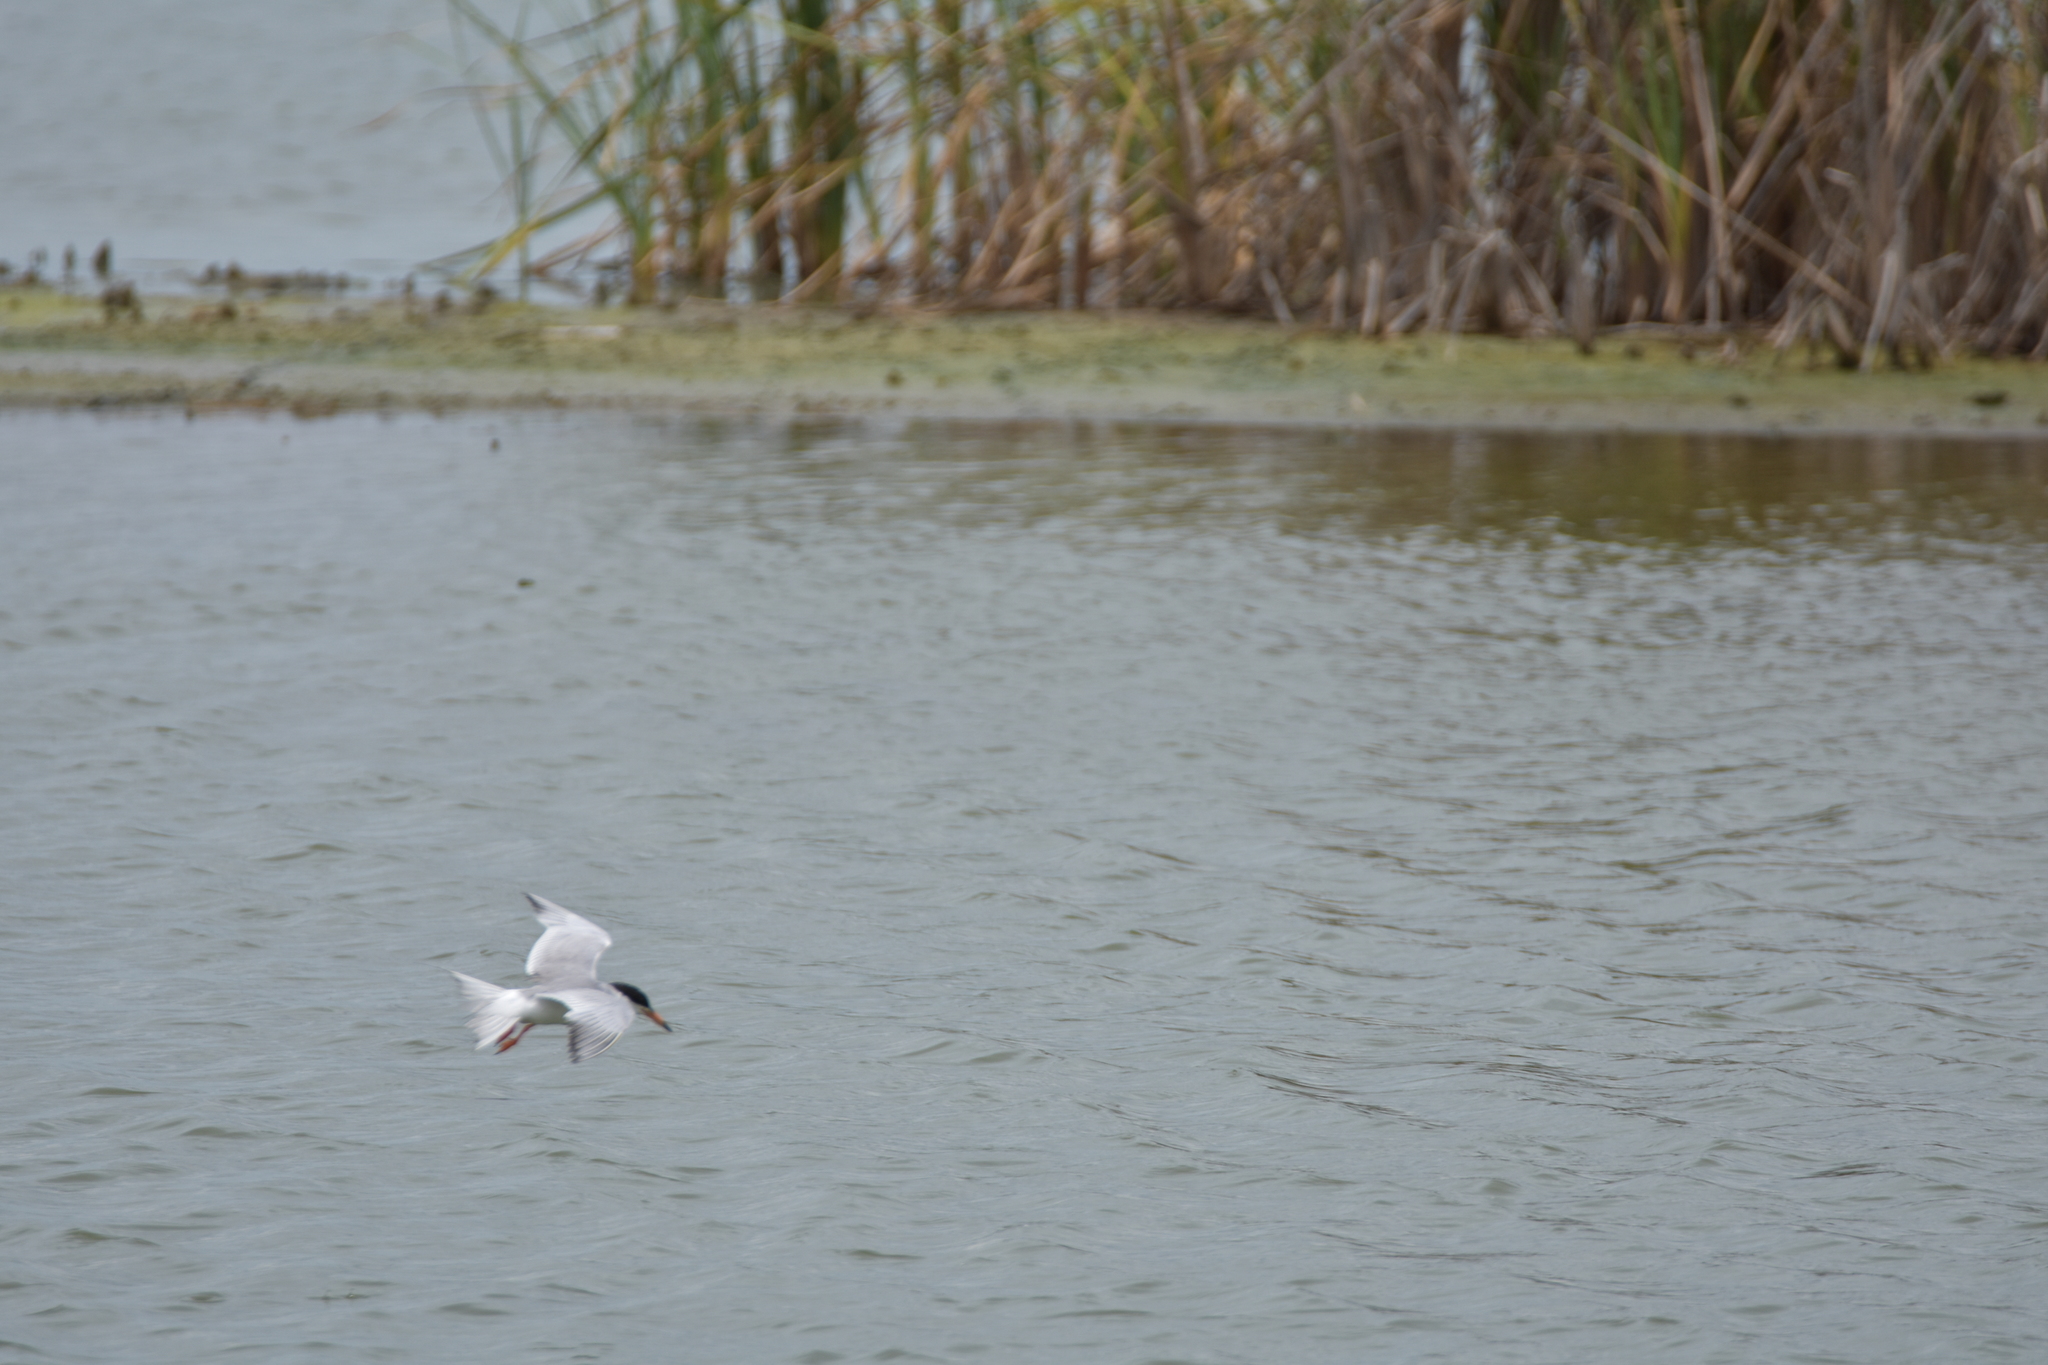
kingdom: Animalia
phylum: Chordata
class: Aves
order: Charadriiformes
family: Laridae
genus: Sterna
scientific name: Sterna forsteri
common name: Forster's tern
